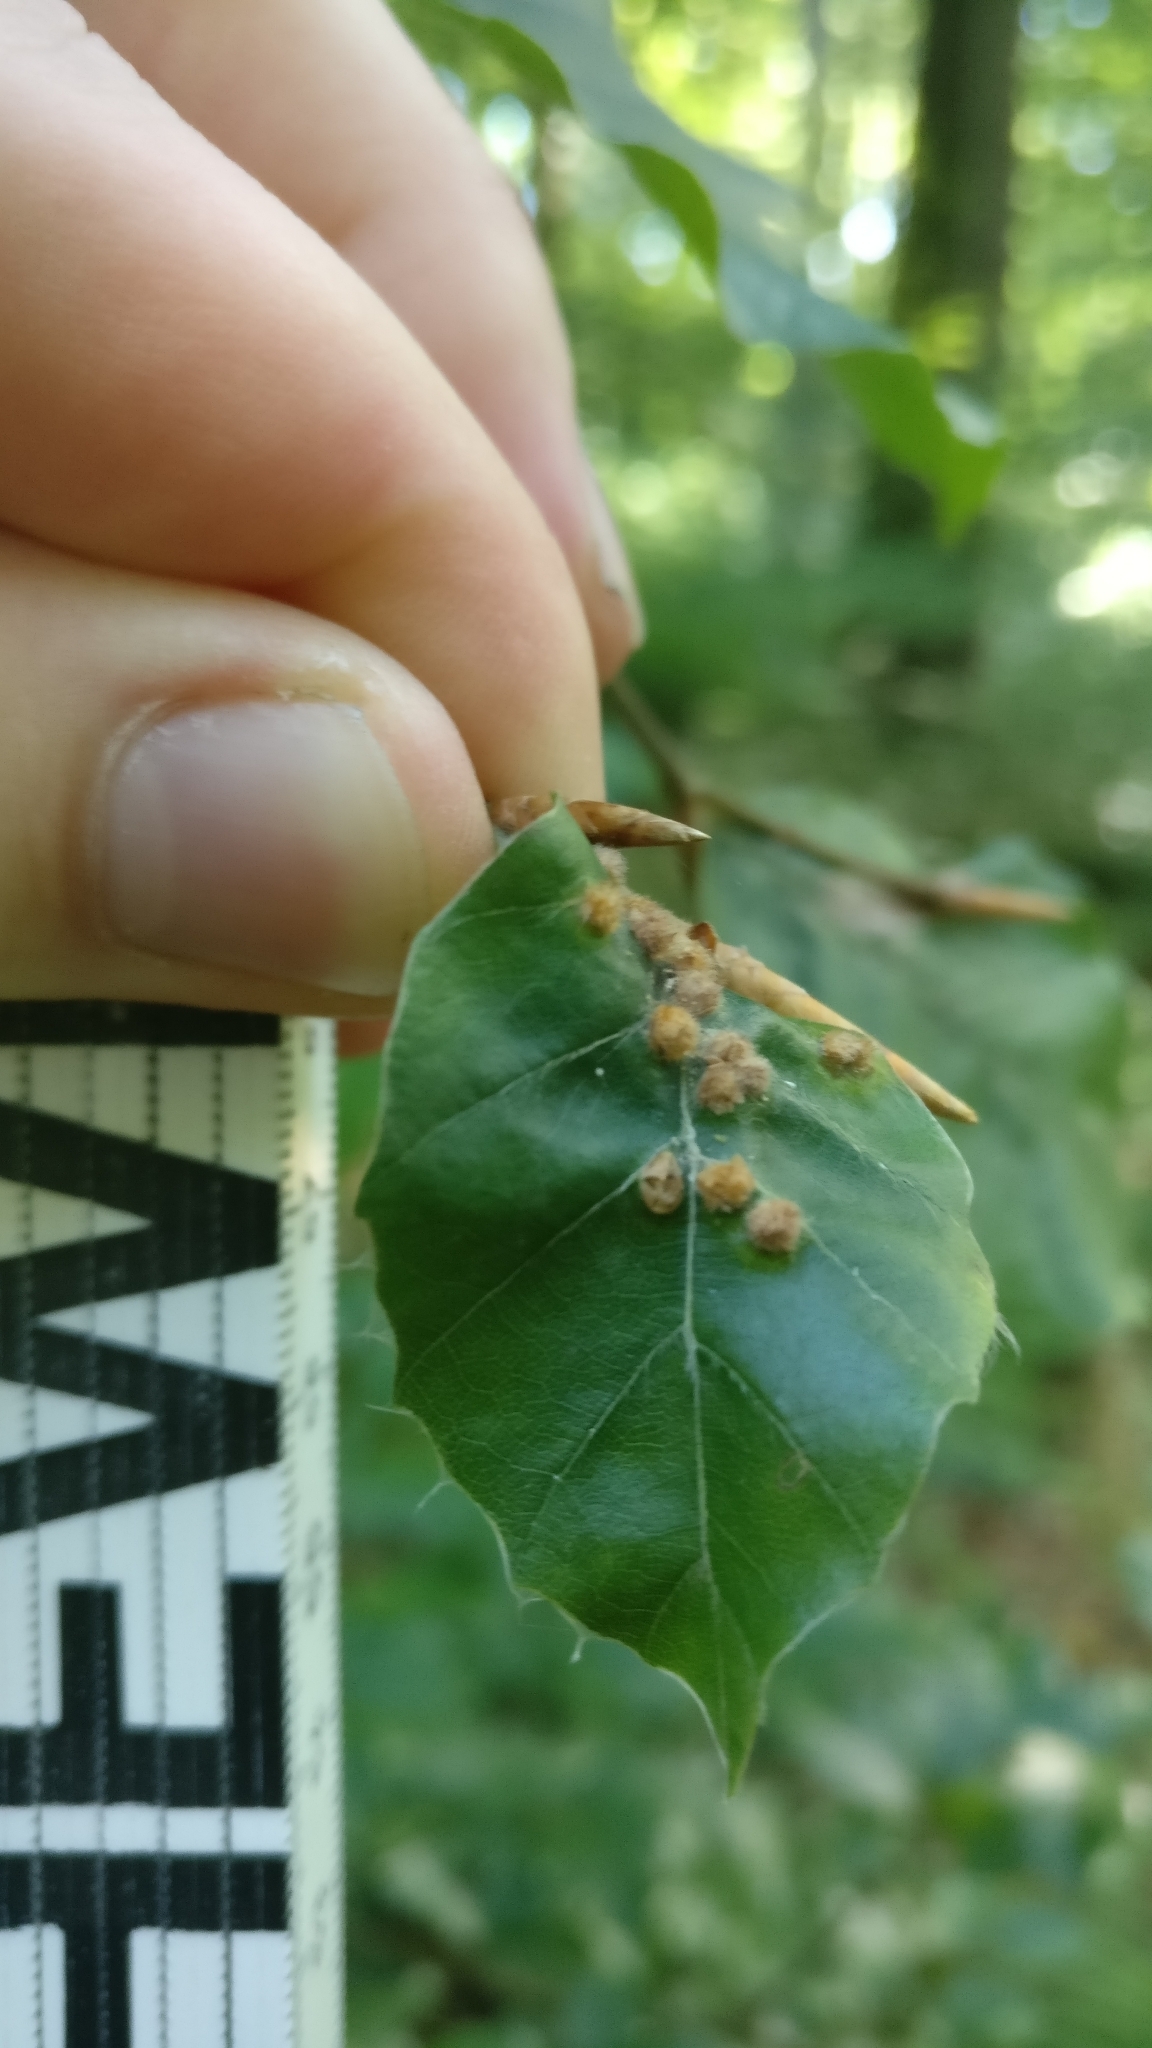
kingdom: Animalia
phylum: Arthropoda
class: Insecta
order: Diptera
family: Cecidomyiidae
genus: Hartigiola
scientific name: Hartigiola annulipes
